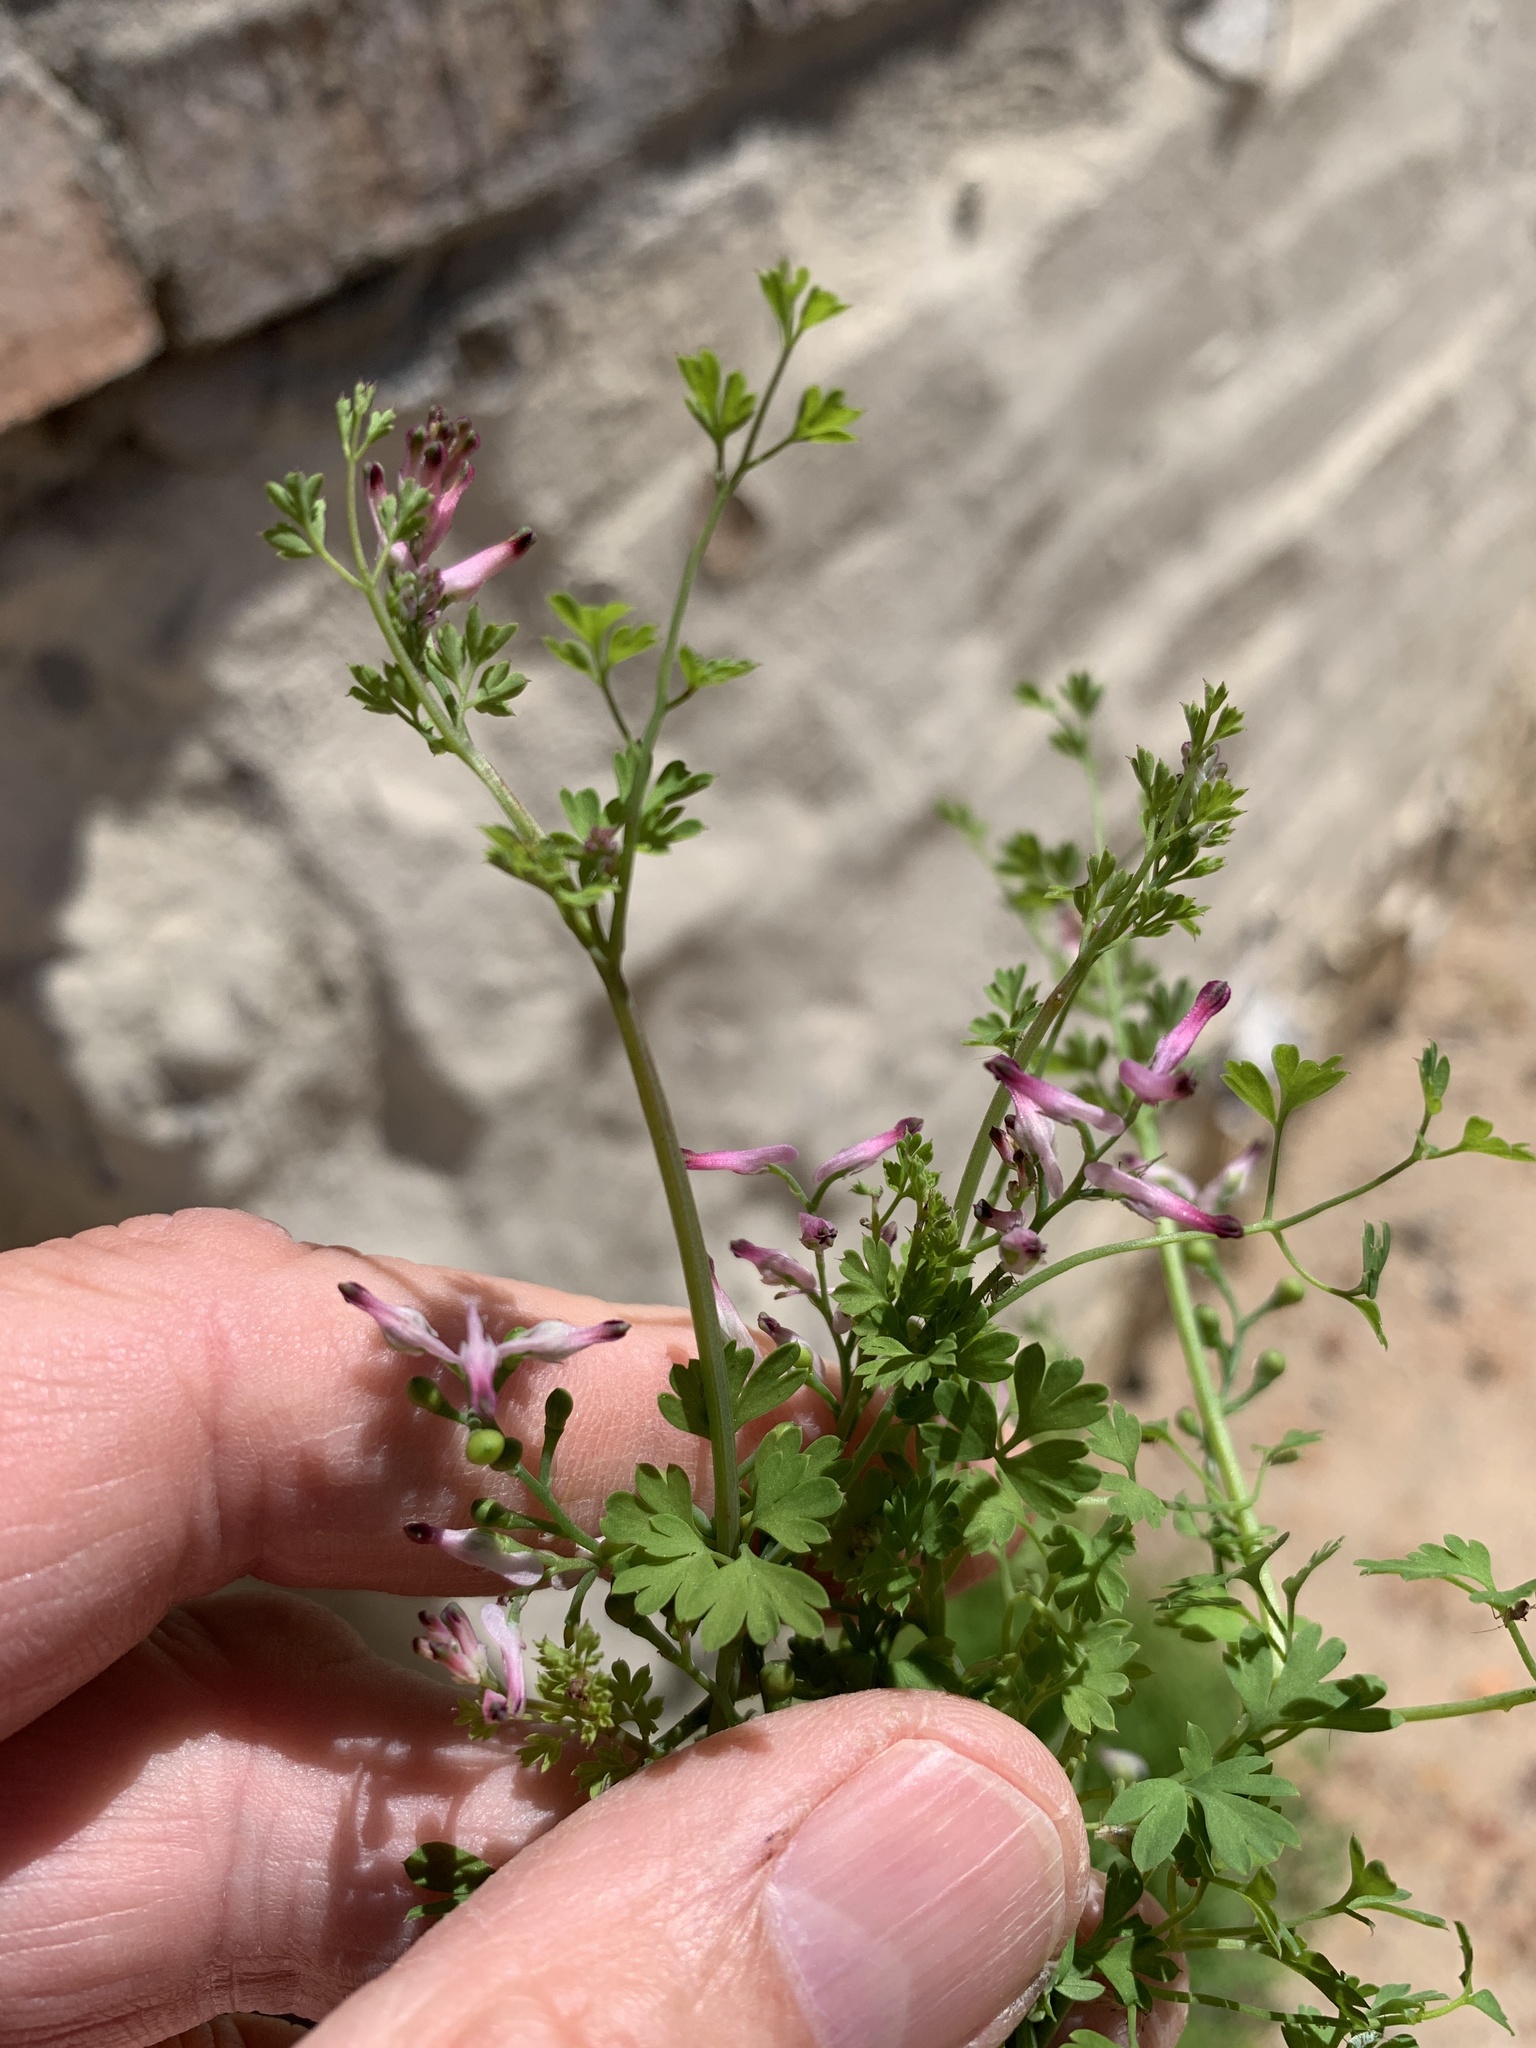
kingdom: Plantae
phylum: Tracheophyta
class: Magnoliopsida
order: Ranunculales
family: Papaveraceae
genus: Fumaria
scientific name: Fumaria muralis
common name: Common ramping-fumitory
